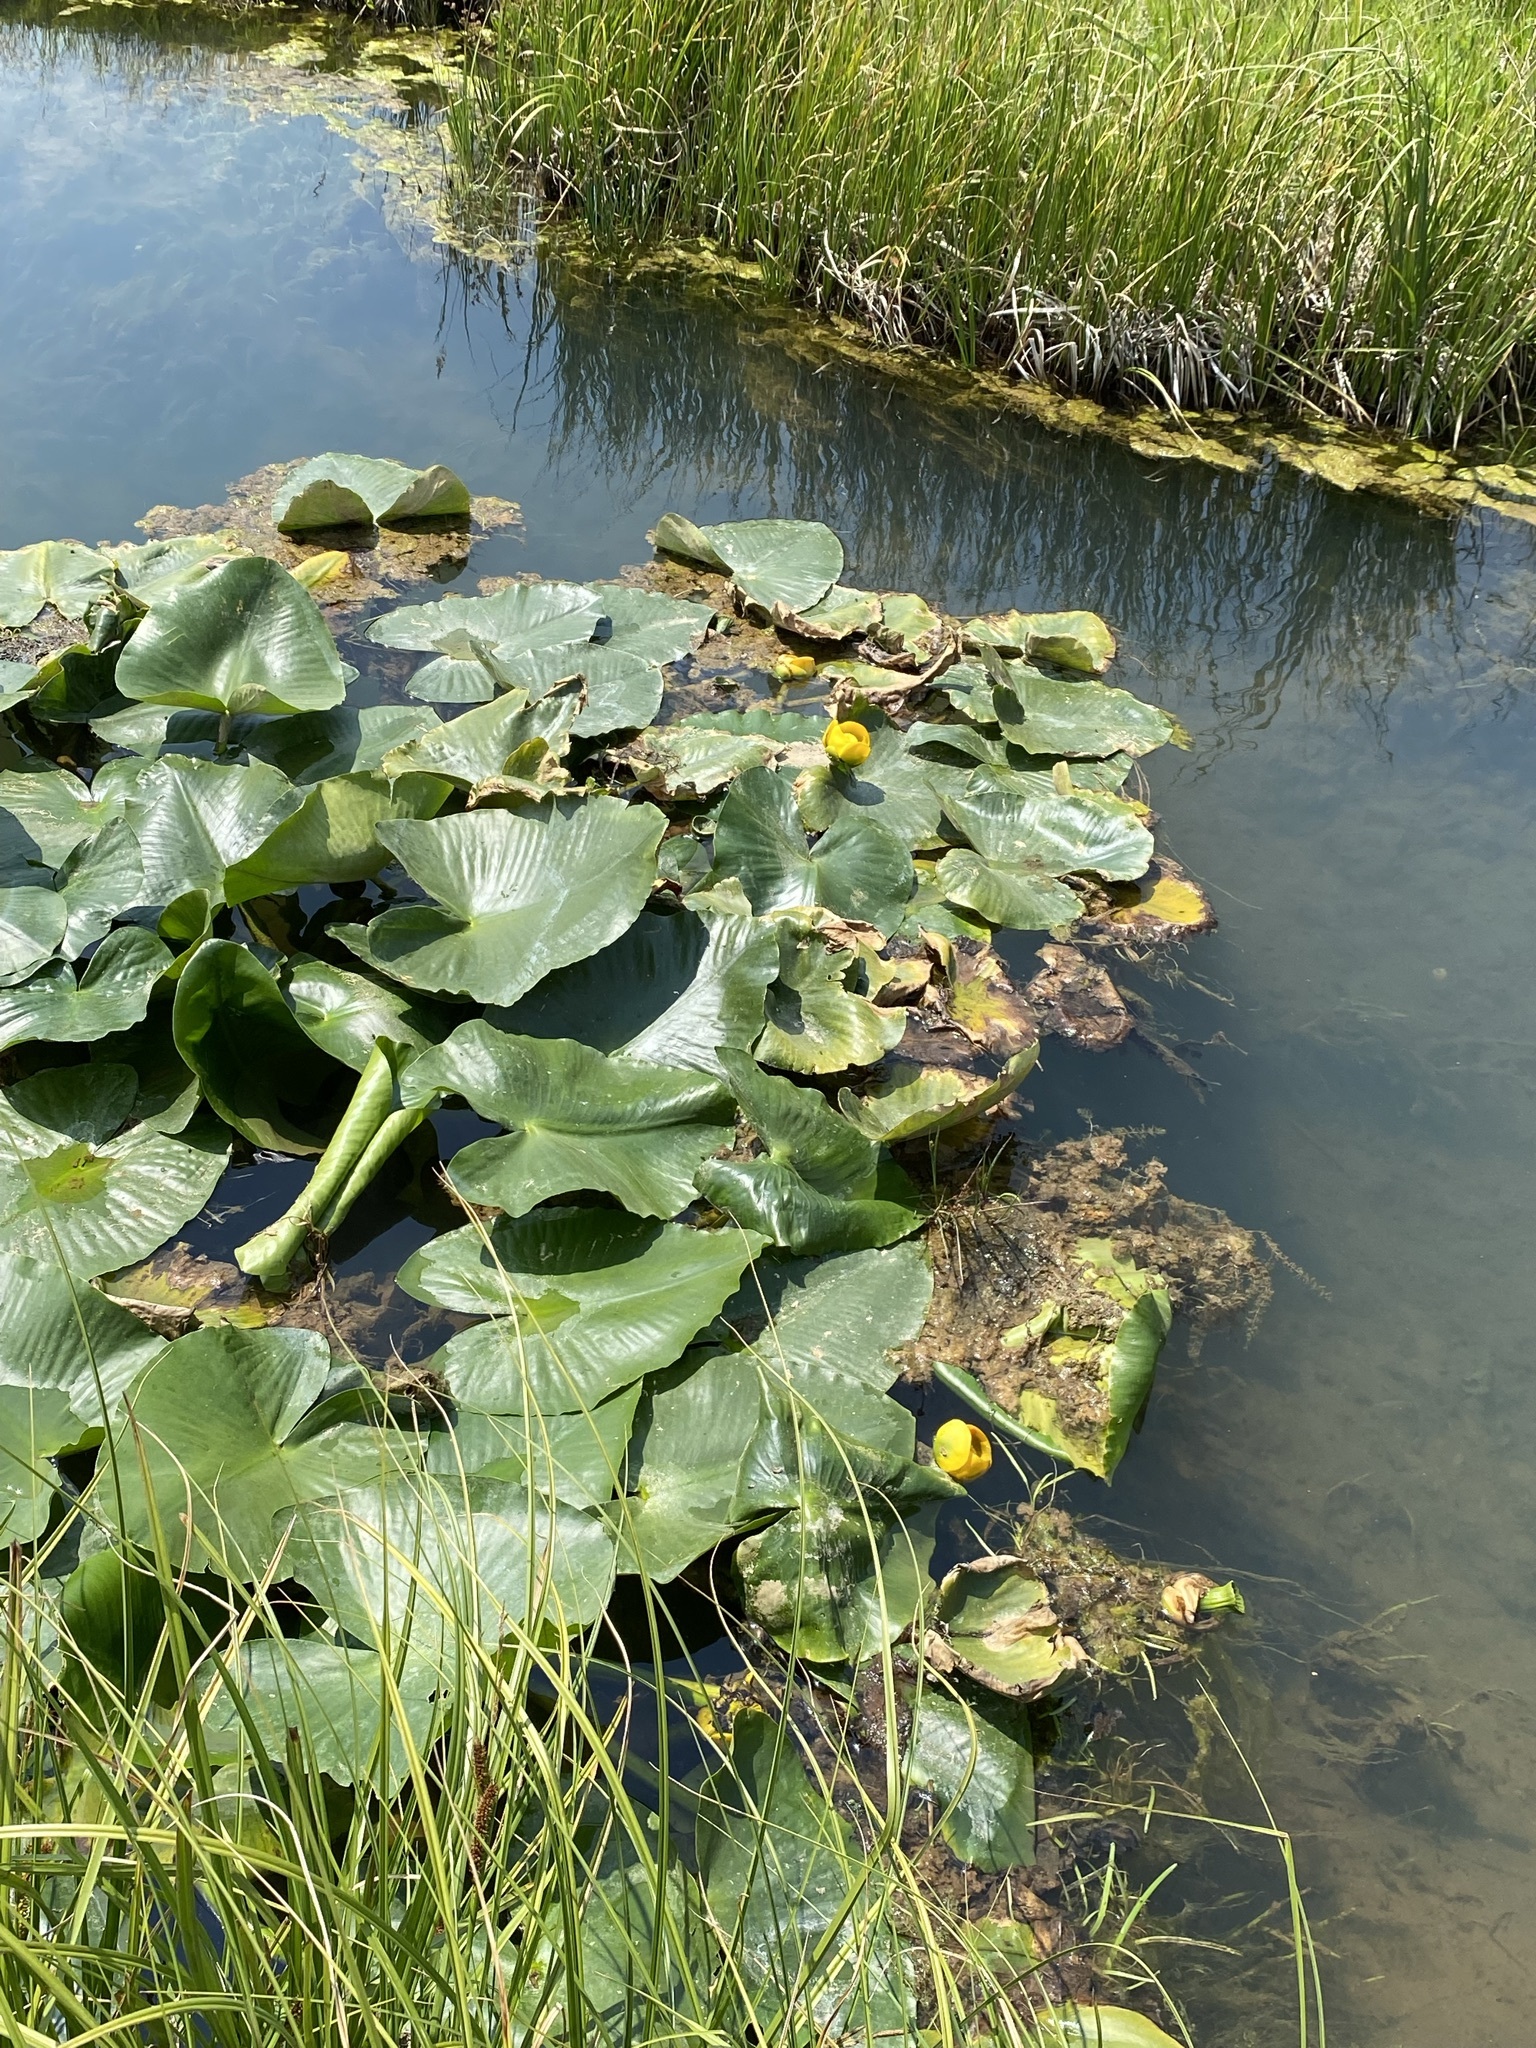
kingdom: Plantae
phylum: Tracheophyta
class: Magnoliopsida
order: Nymphaeales
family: Nymphaeaceae
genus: Nuphar
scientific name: Nuphar polysepala
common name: Rocky mountain cow-lily
